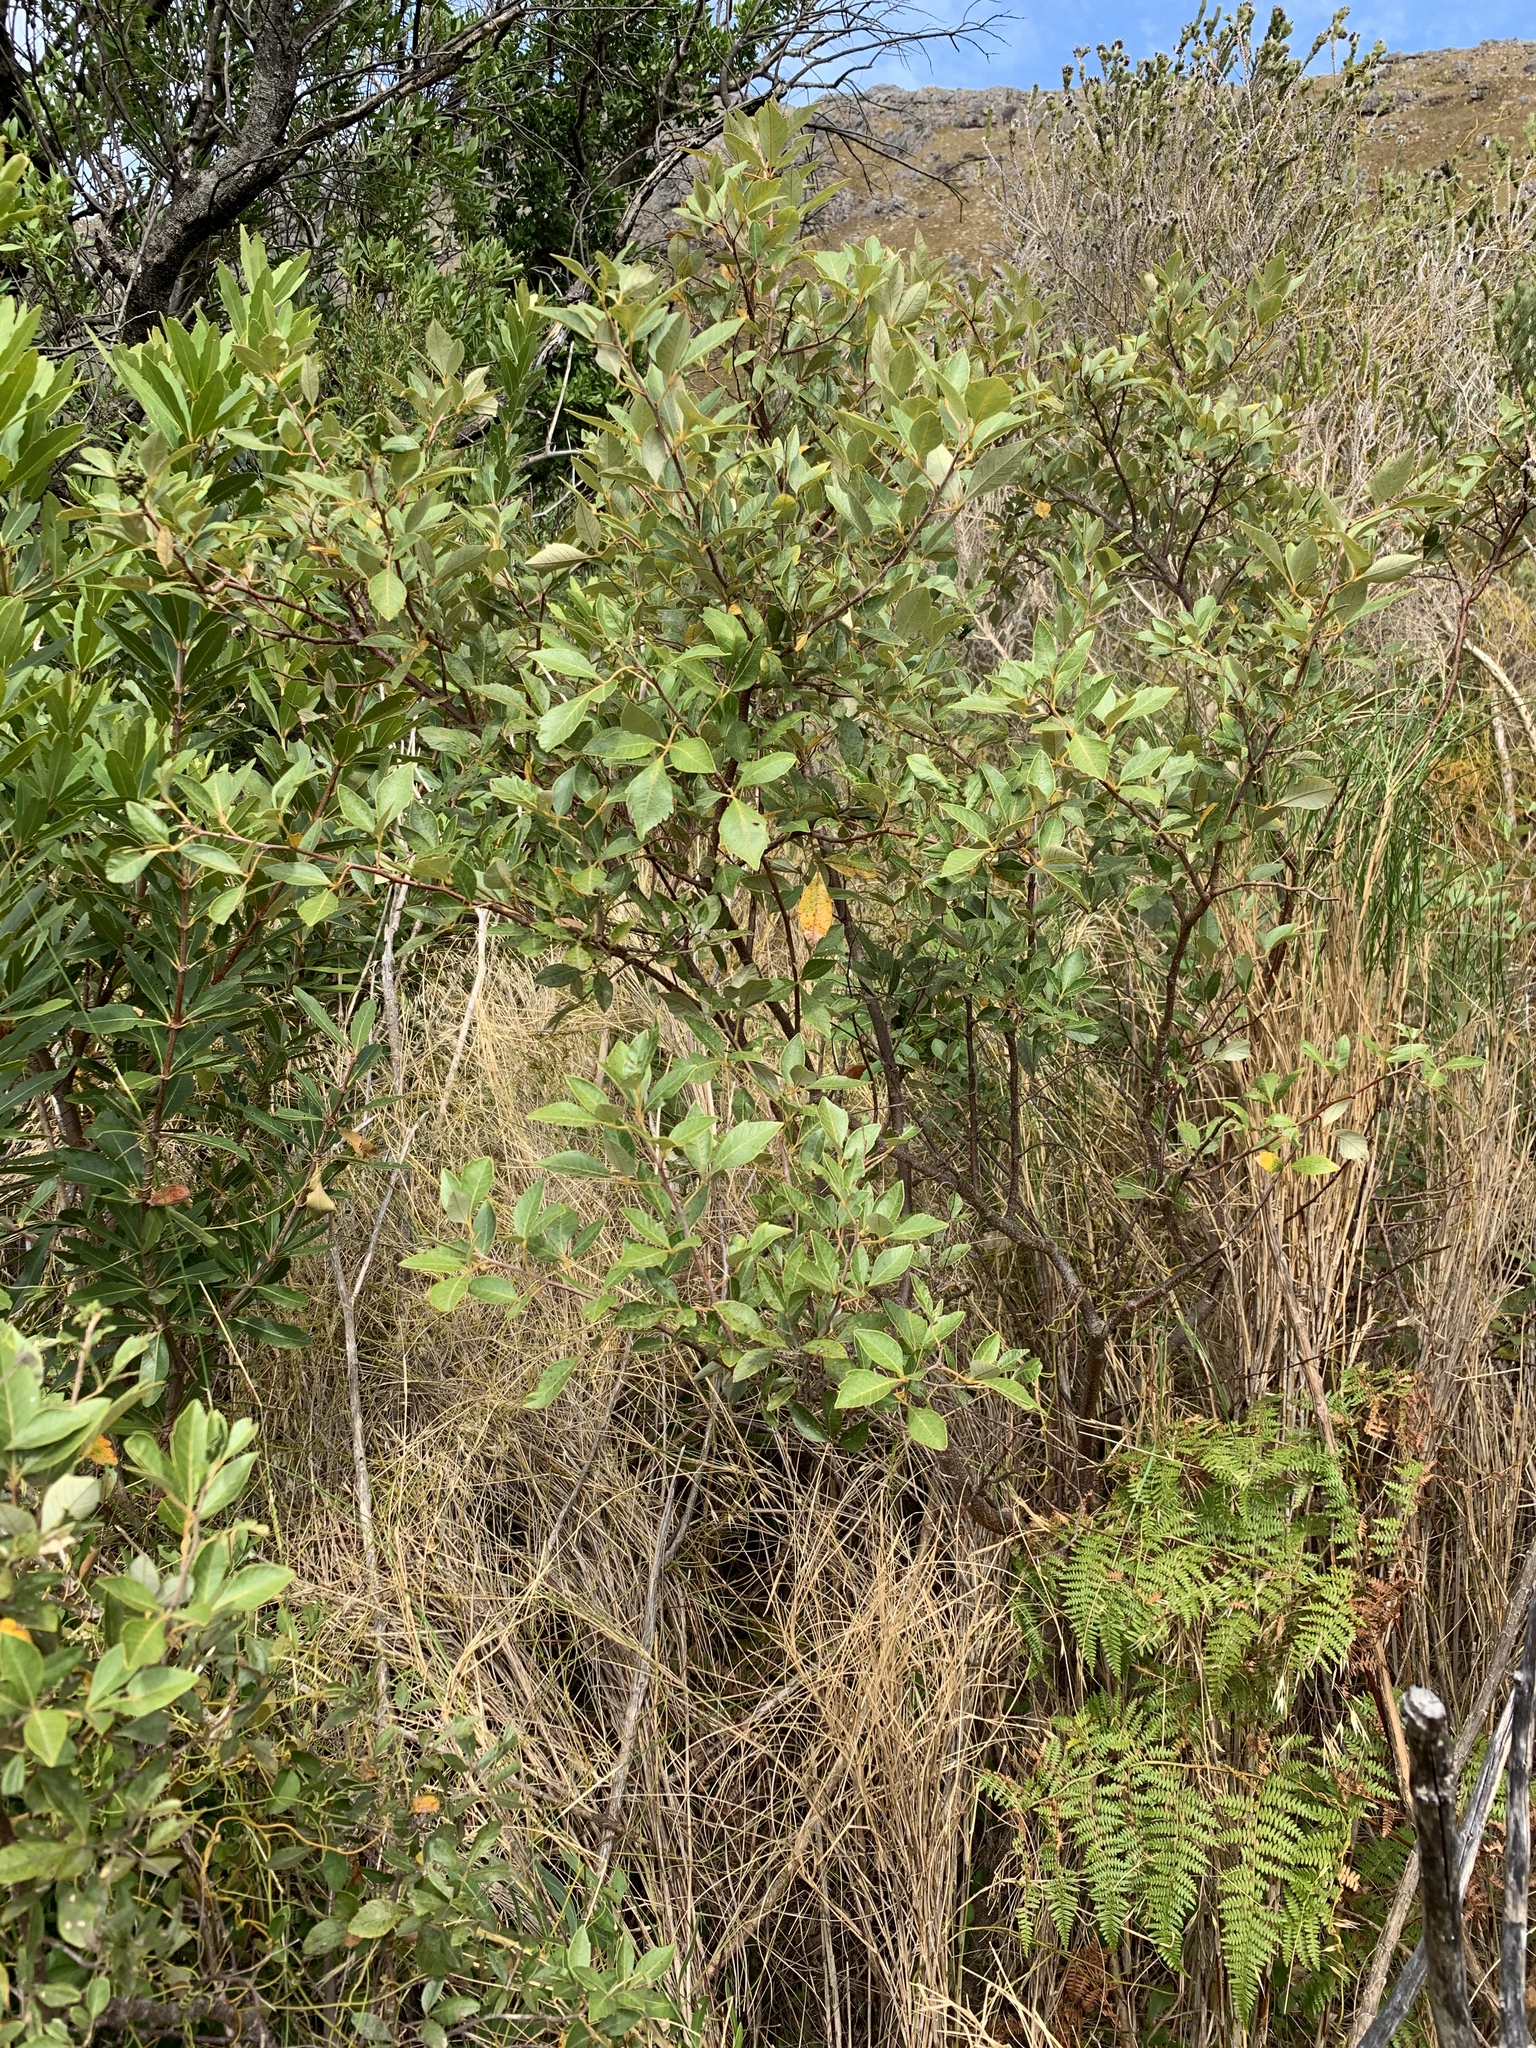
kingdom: Plantae
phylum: Tracheophyta
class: Magnoliopsida
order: Sapindales
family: Anacardiaceae
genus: Searsia
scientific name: Searsia tomentosa
